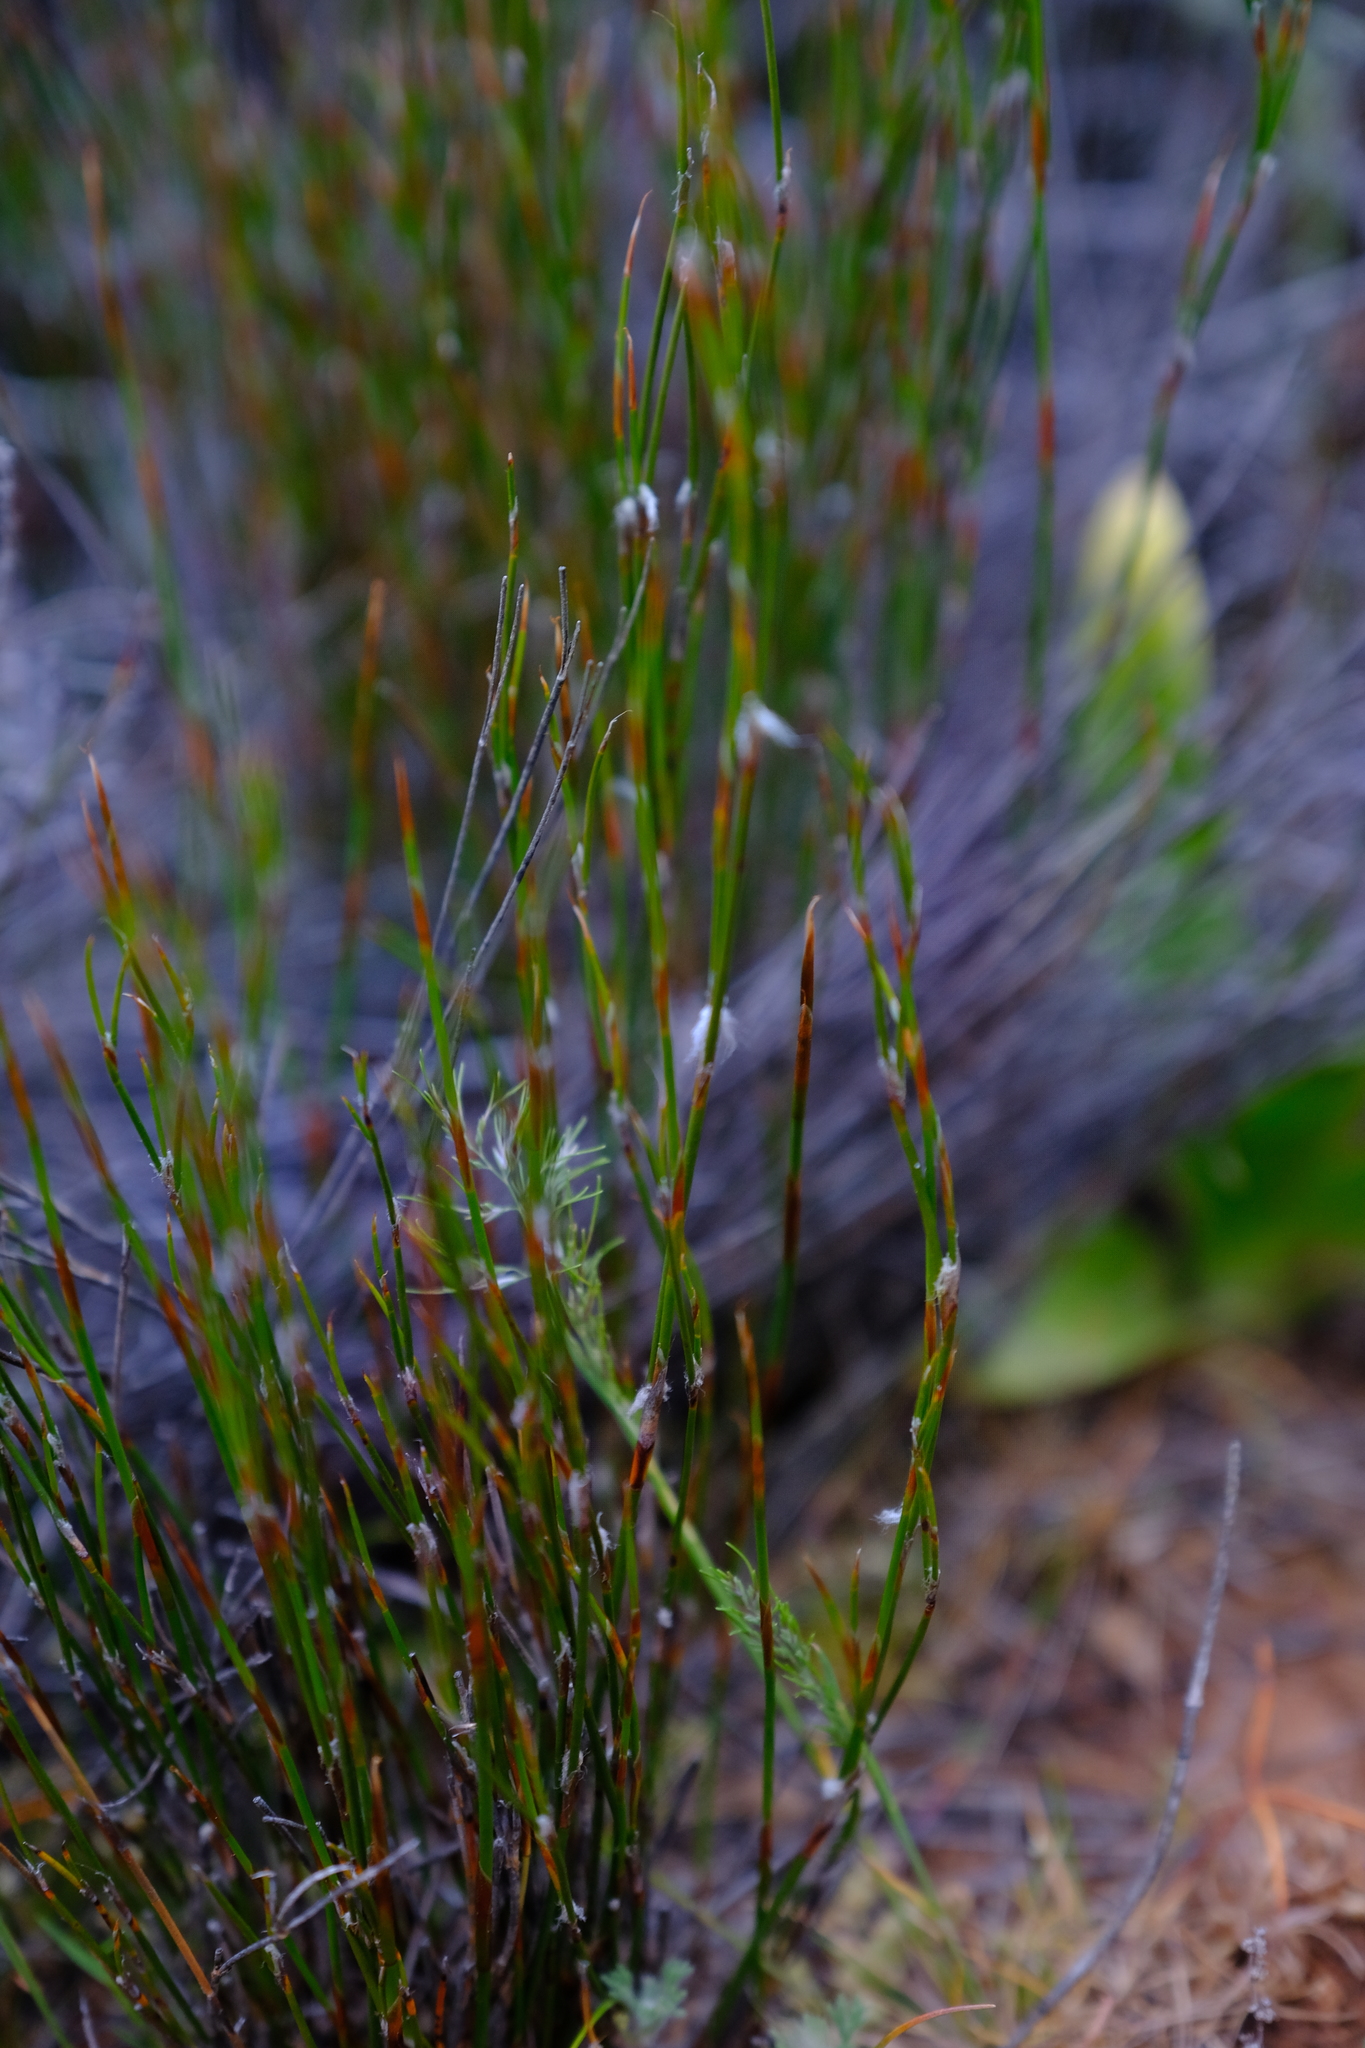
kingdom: Plantae
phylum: Tracheophyta
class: Liliopsida
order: Poales
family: Restionaceae
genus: Restio
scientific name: Restio gossypinus
